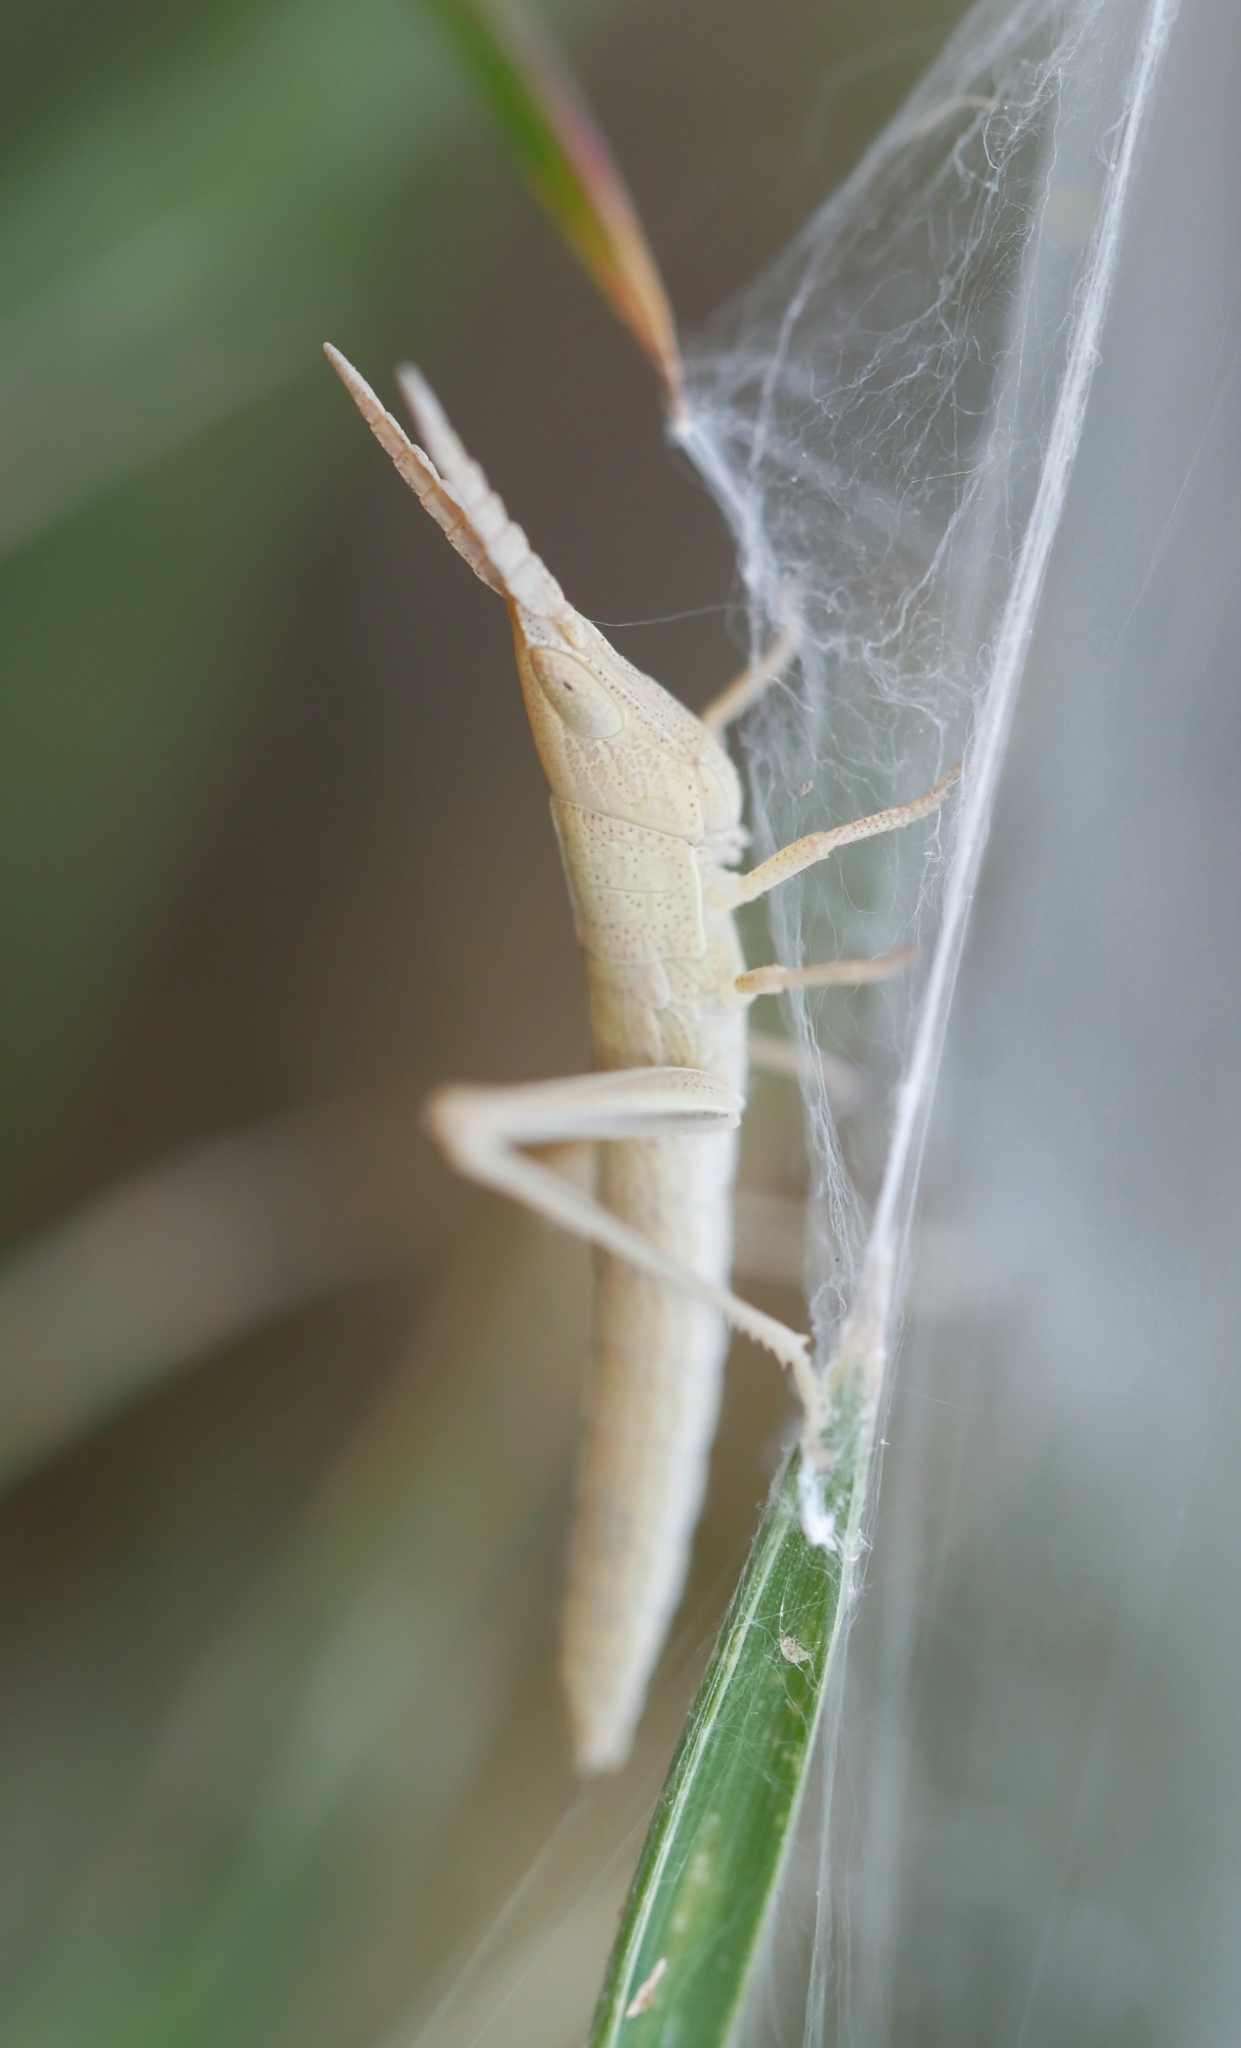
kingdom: Animalia
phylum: Arthropoda
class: Insecta
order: Orthoptera
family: Acrididae
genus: Pseudopomala
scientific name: Pseudopomala brachyptera
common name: Bunchgrass grasshopper
